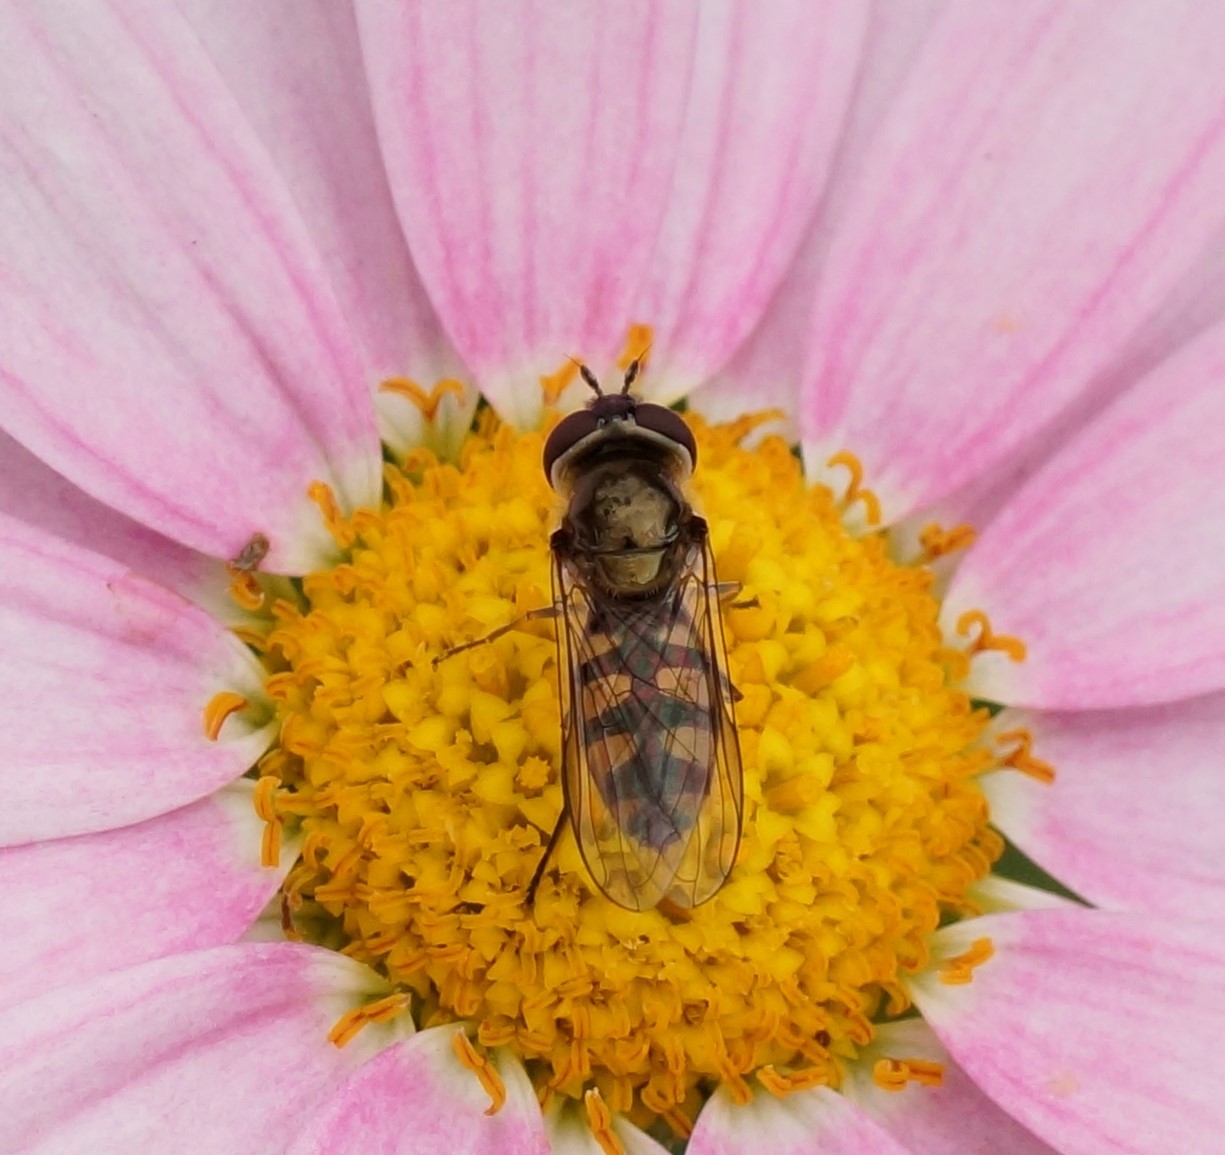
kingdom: Animalia
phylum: Arthropoda
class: Insecta
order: Diptera
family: Syrphidae
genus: Melangyna
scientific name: Melangyna viridiceps
